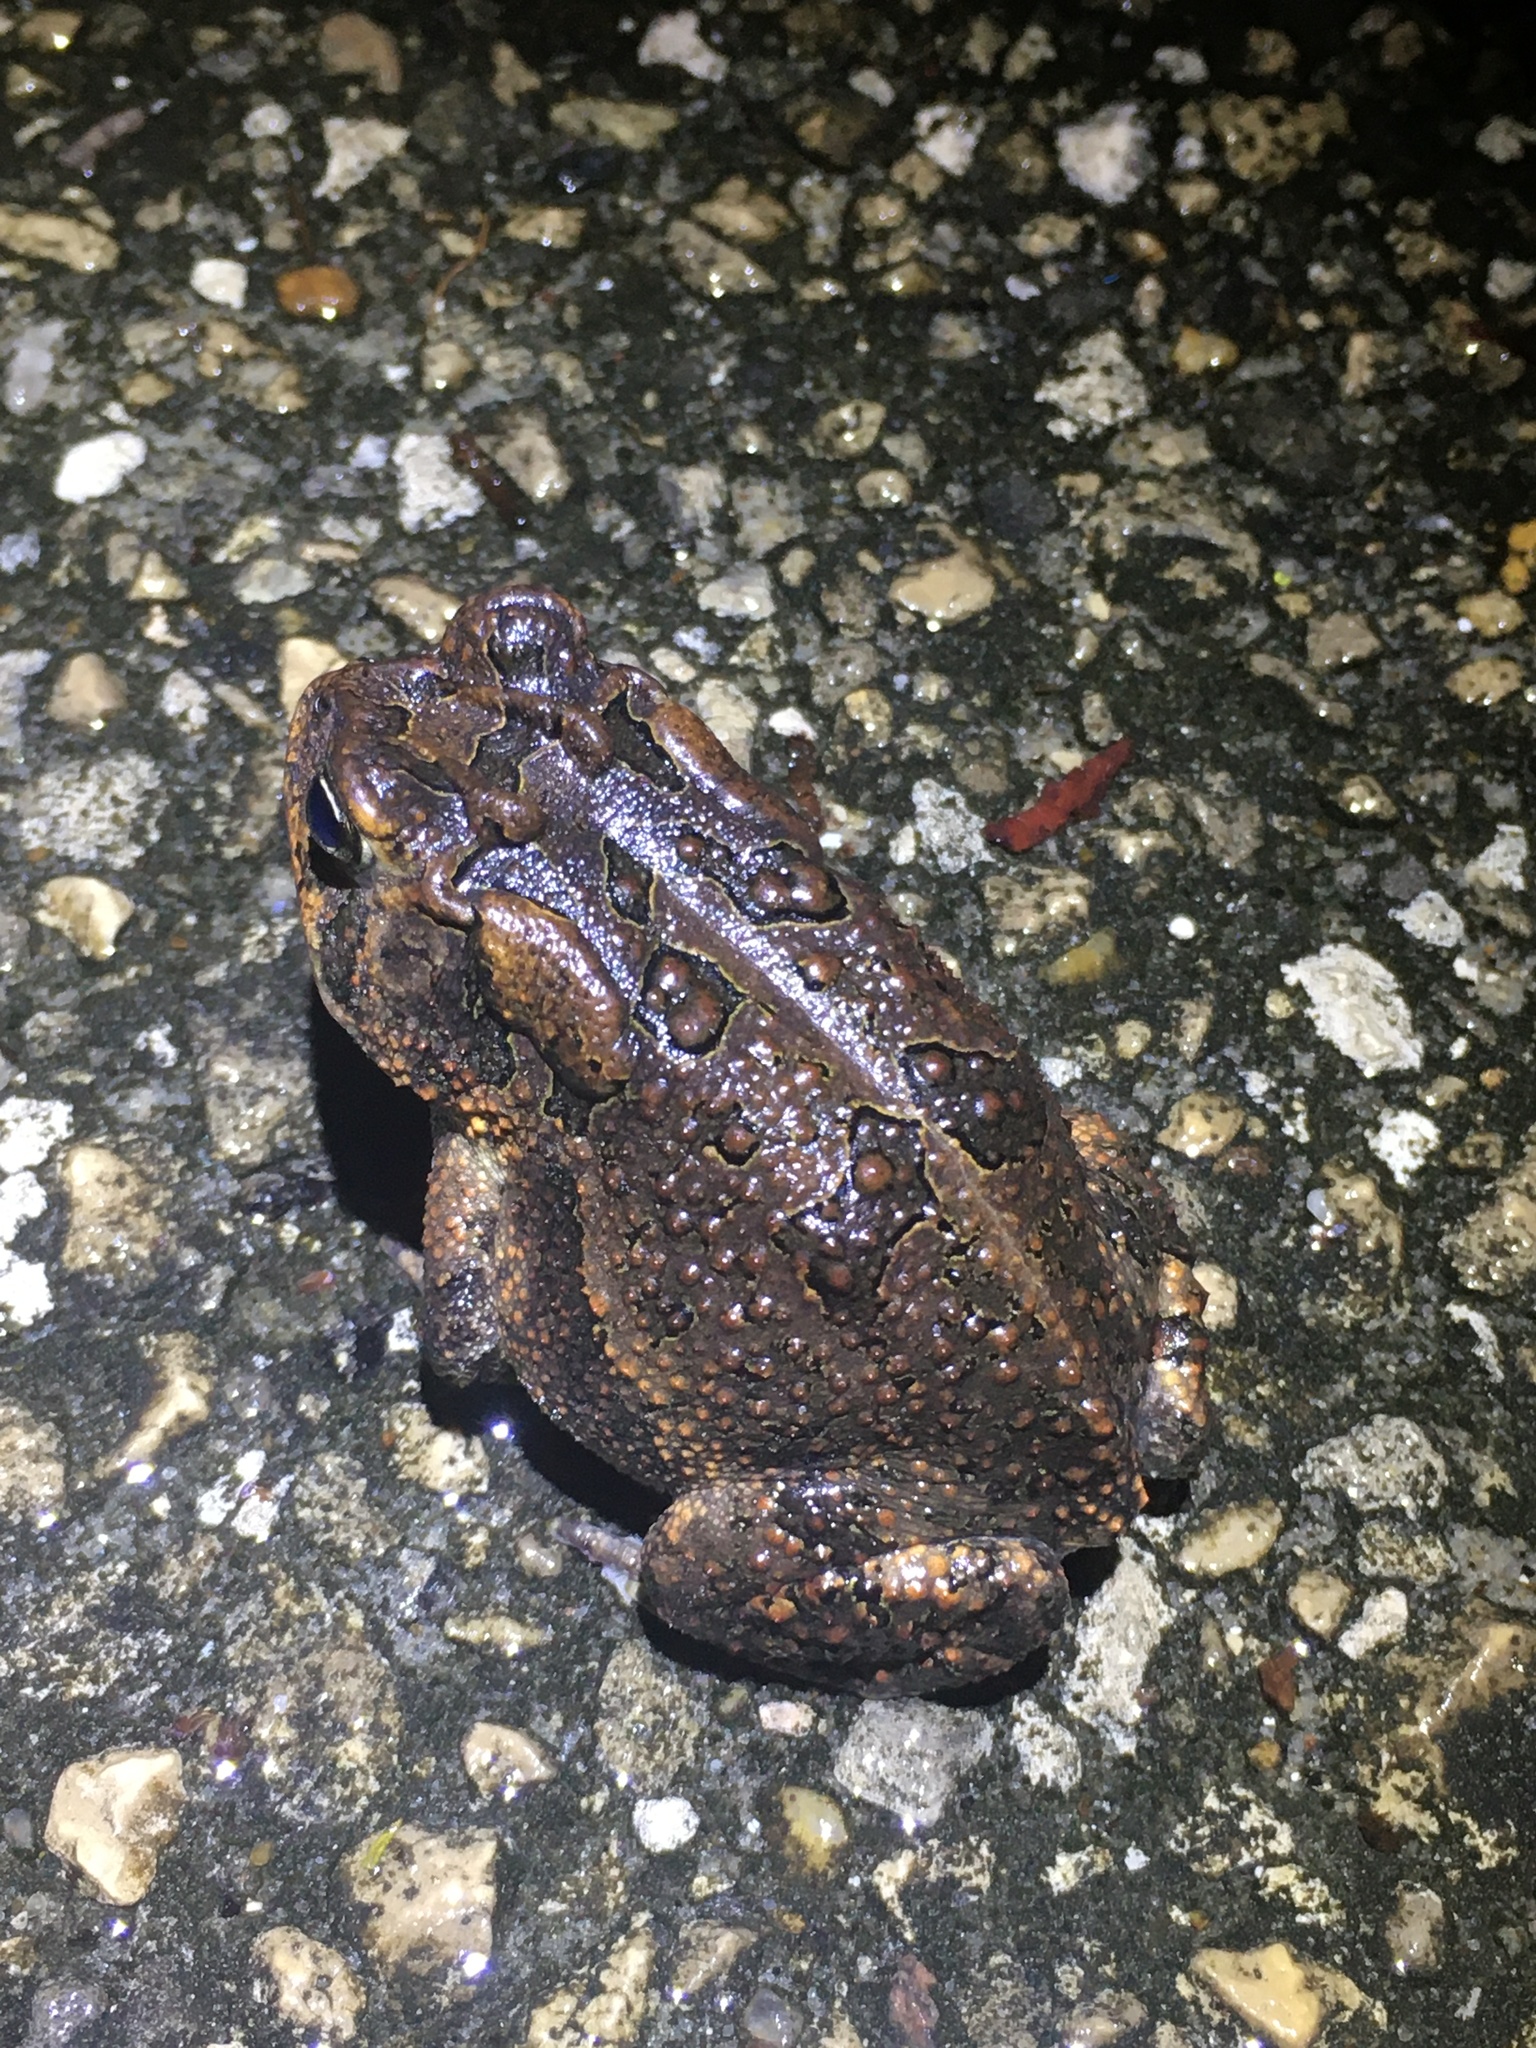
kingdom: Animalia
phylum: Chordata
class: Amphibia
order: Anura
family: Bufonidae
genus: Anaxyrus
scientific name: Anaxyrus terrestris
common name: Southern toad
